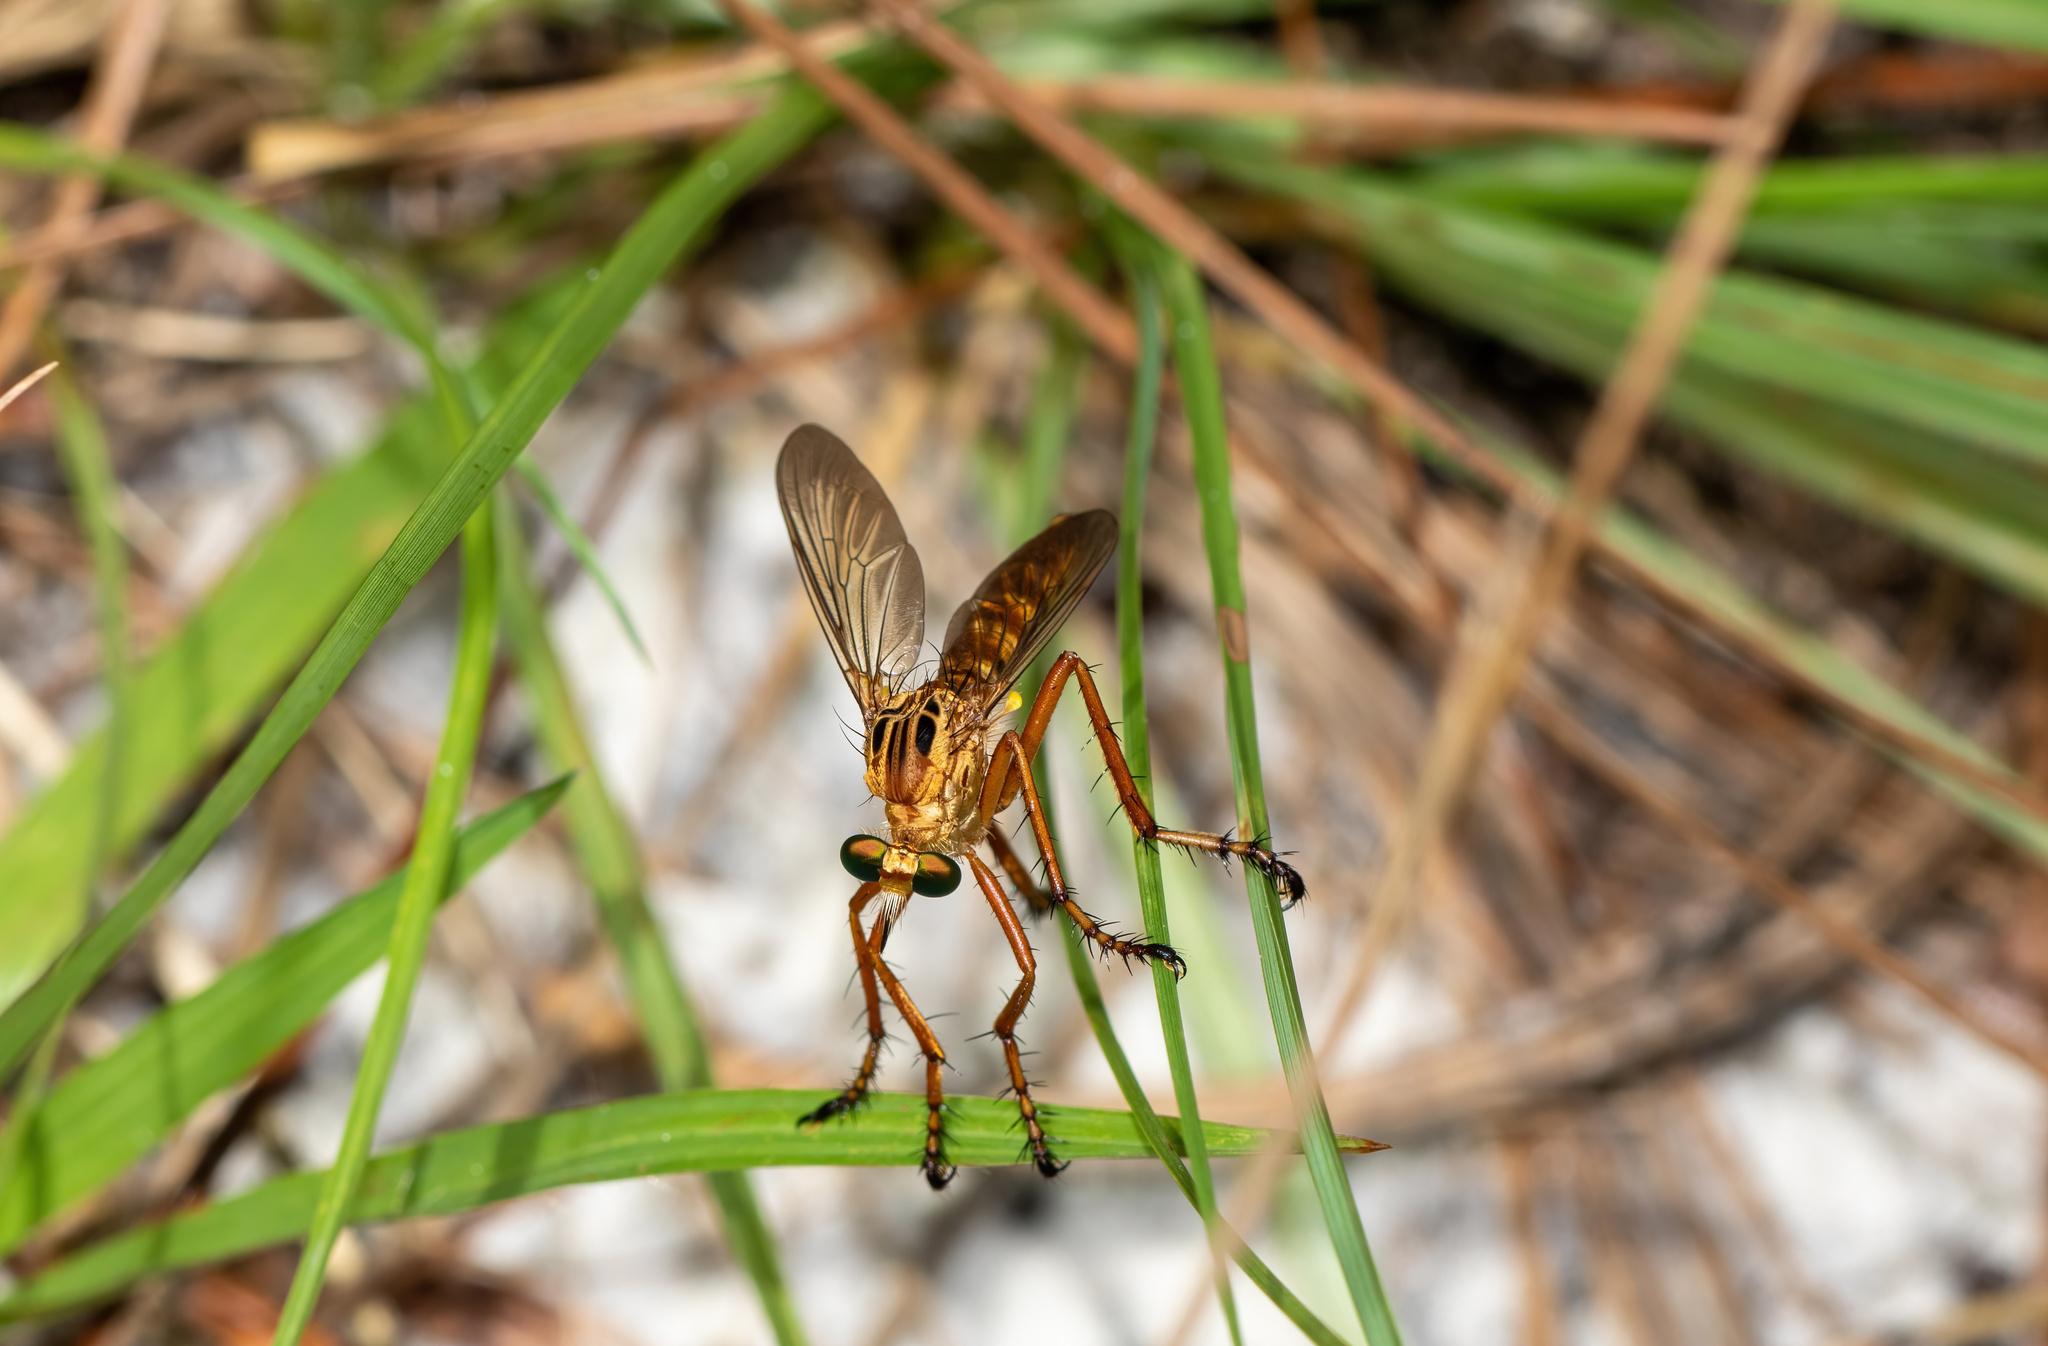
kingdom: Animalia
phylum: Arthropoda
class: Insecta
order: Diptera
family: Asilidae
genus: Diogmites
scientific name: Diogmites esuriens
